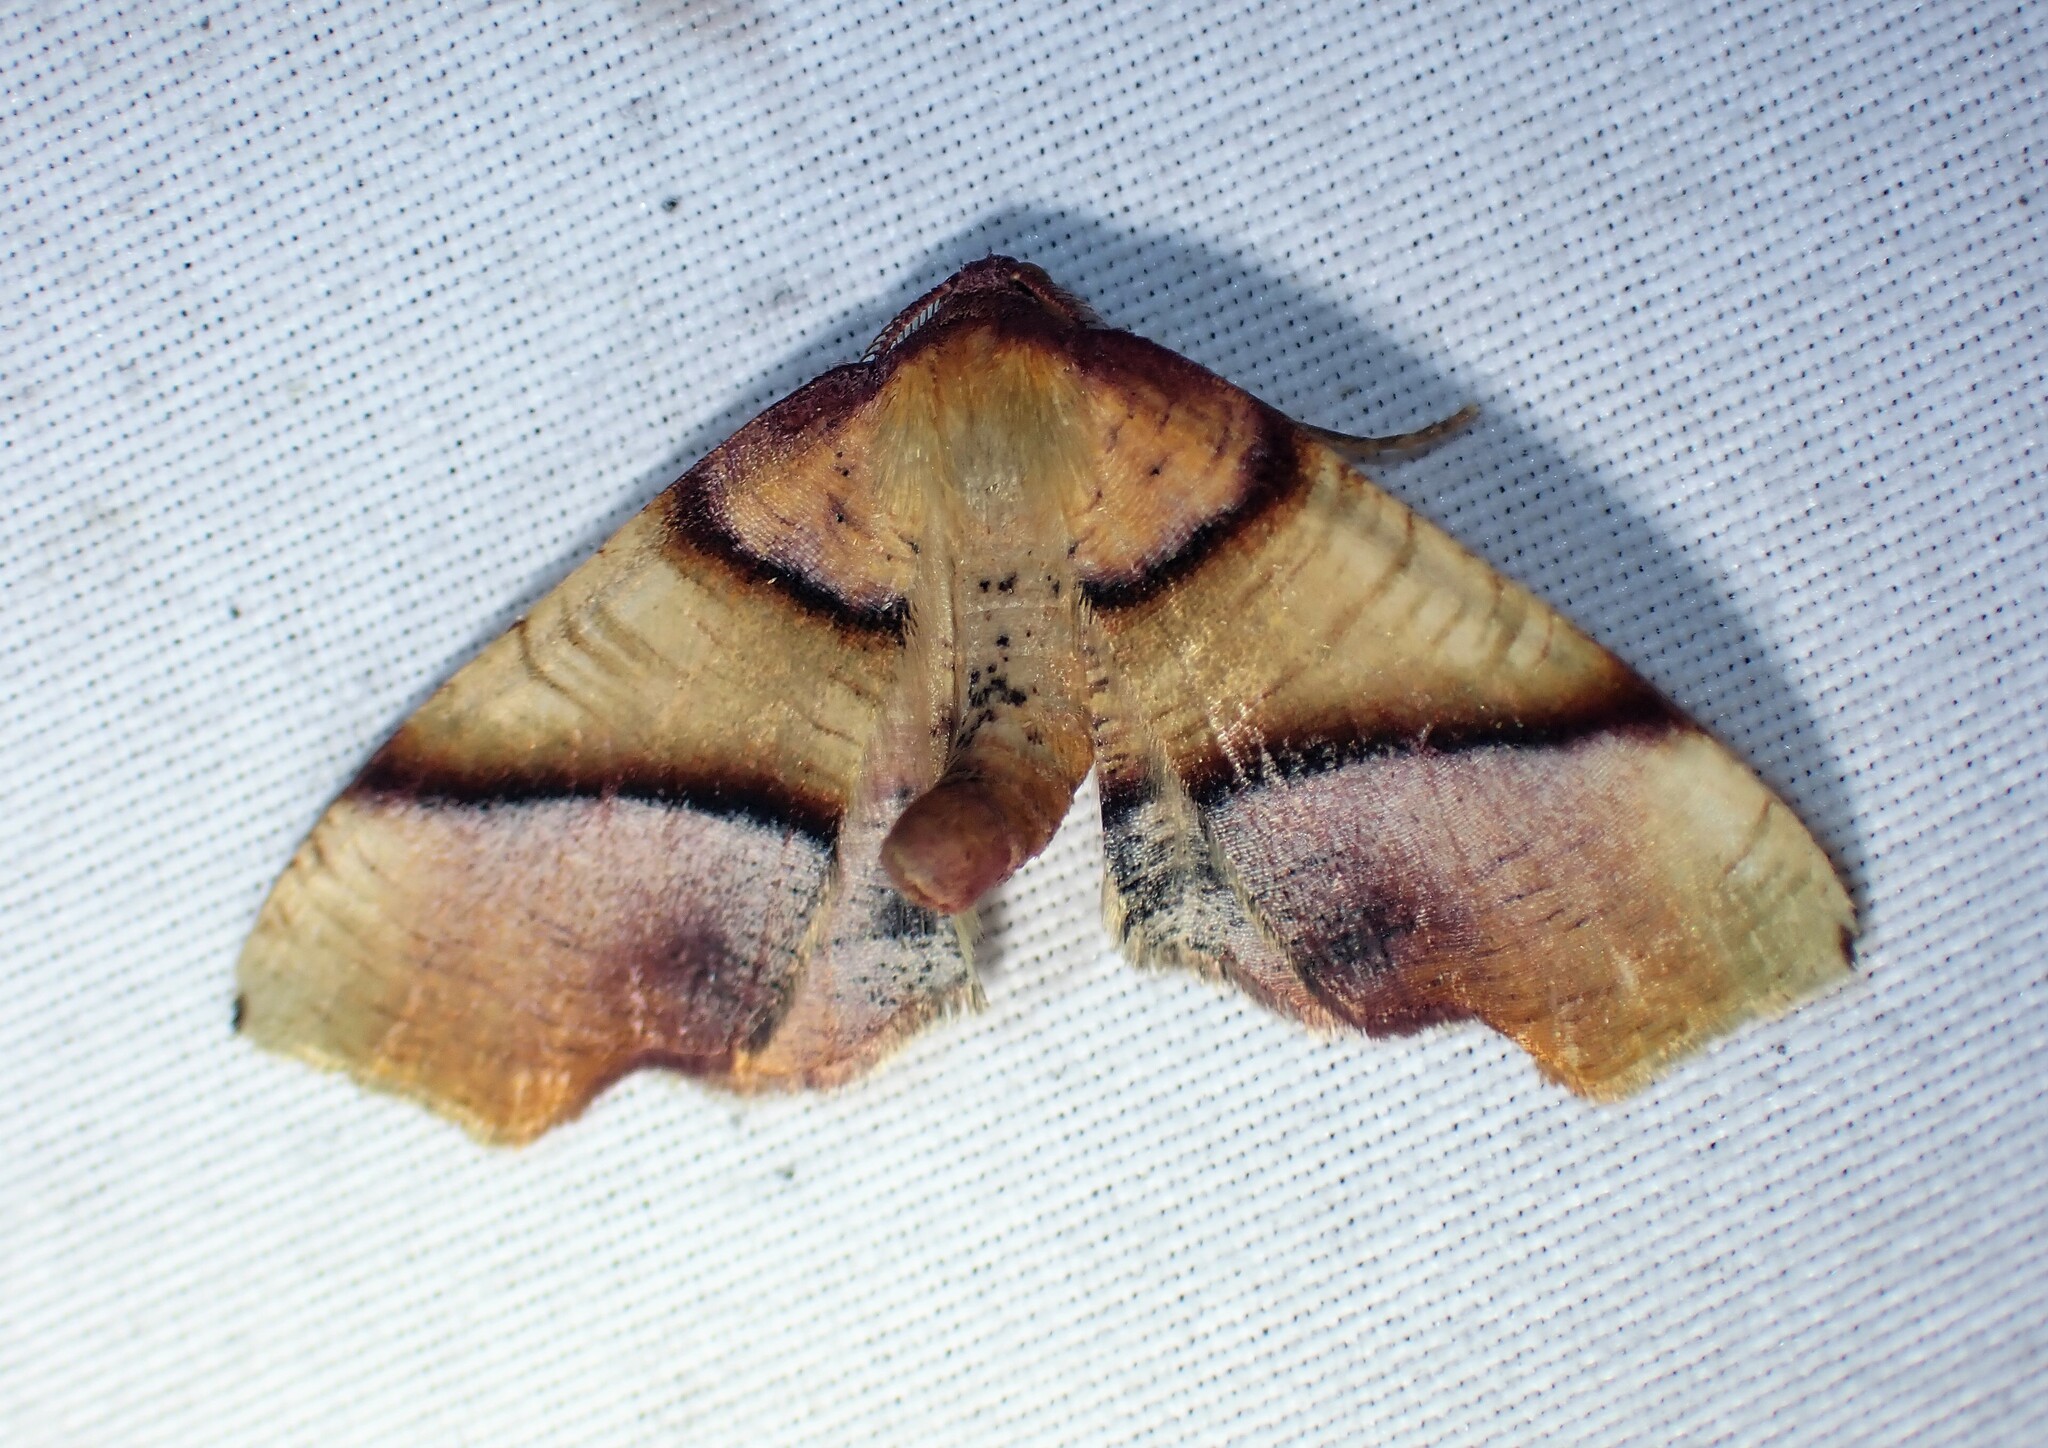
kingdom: Animalia
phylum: Arthropoda
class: Insecta
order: Lepidoptera
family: Geometridae
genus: Plagodis
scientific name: Plagodis phlogosaria
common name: Straight-lined plagodis
